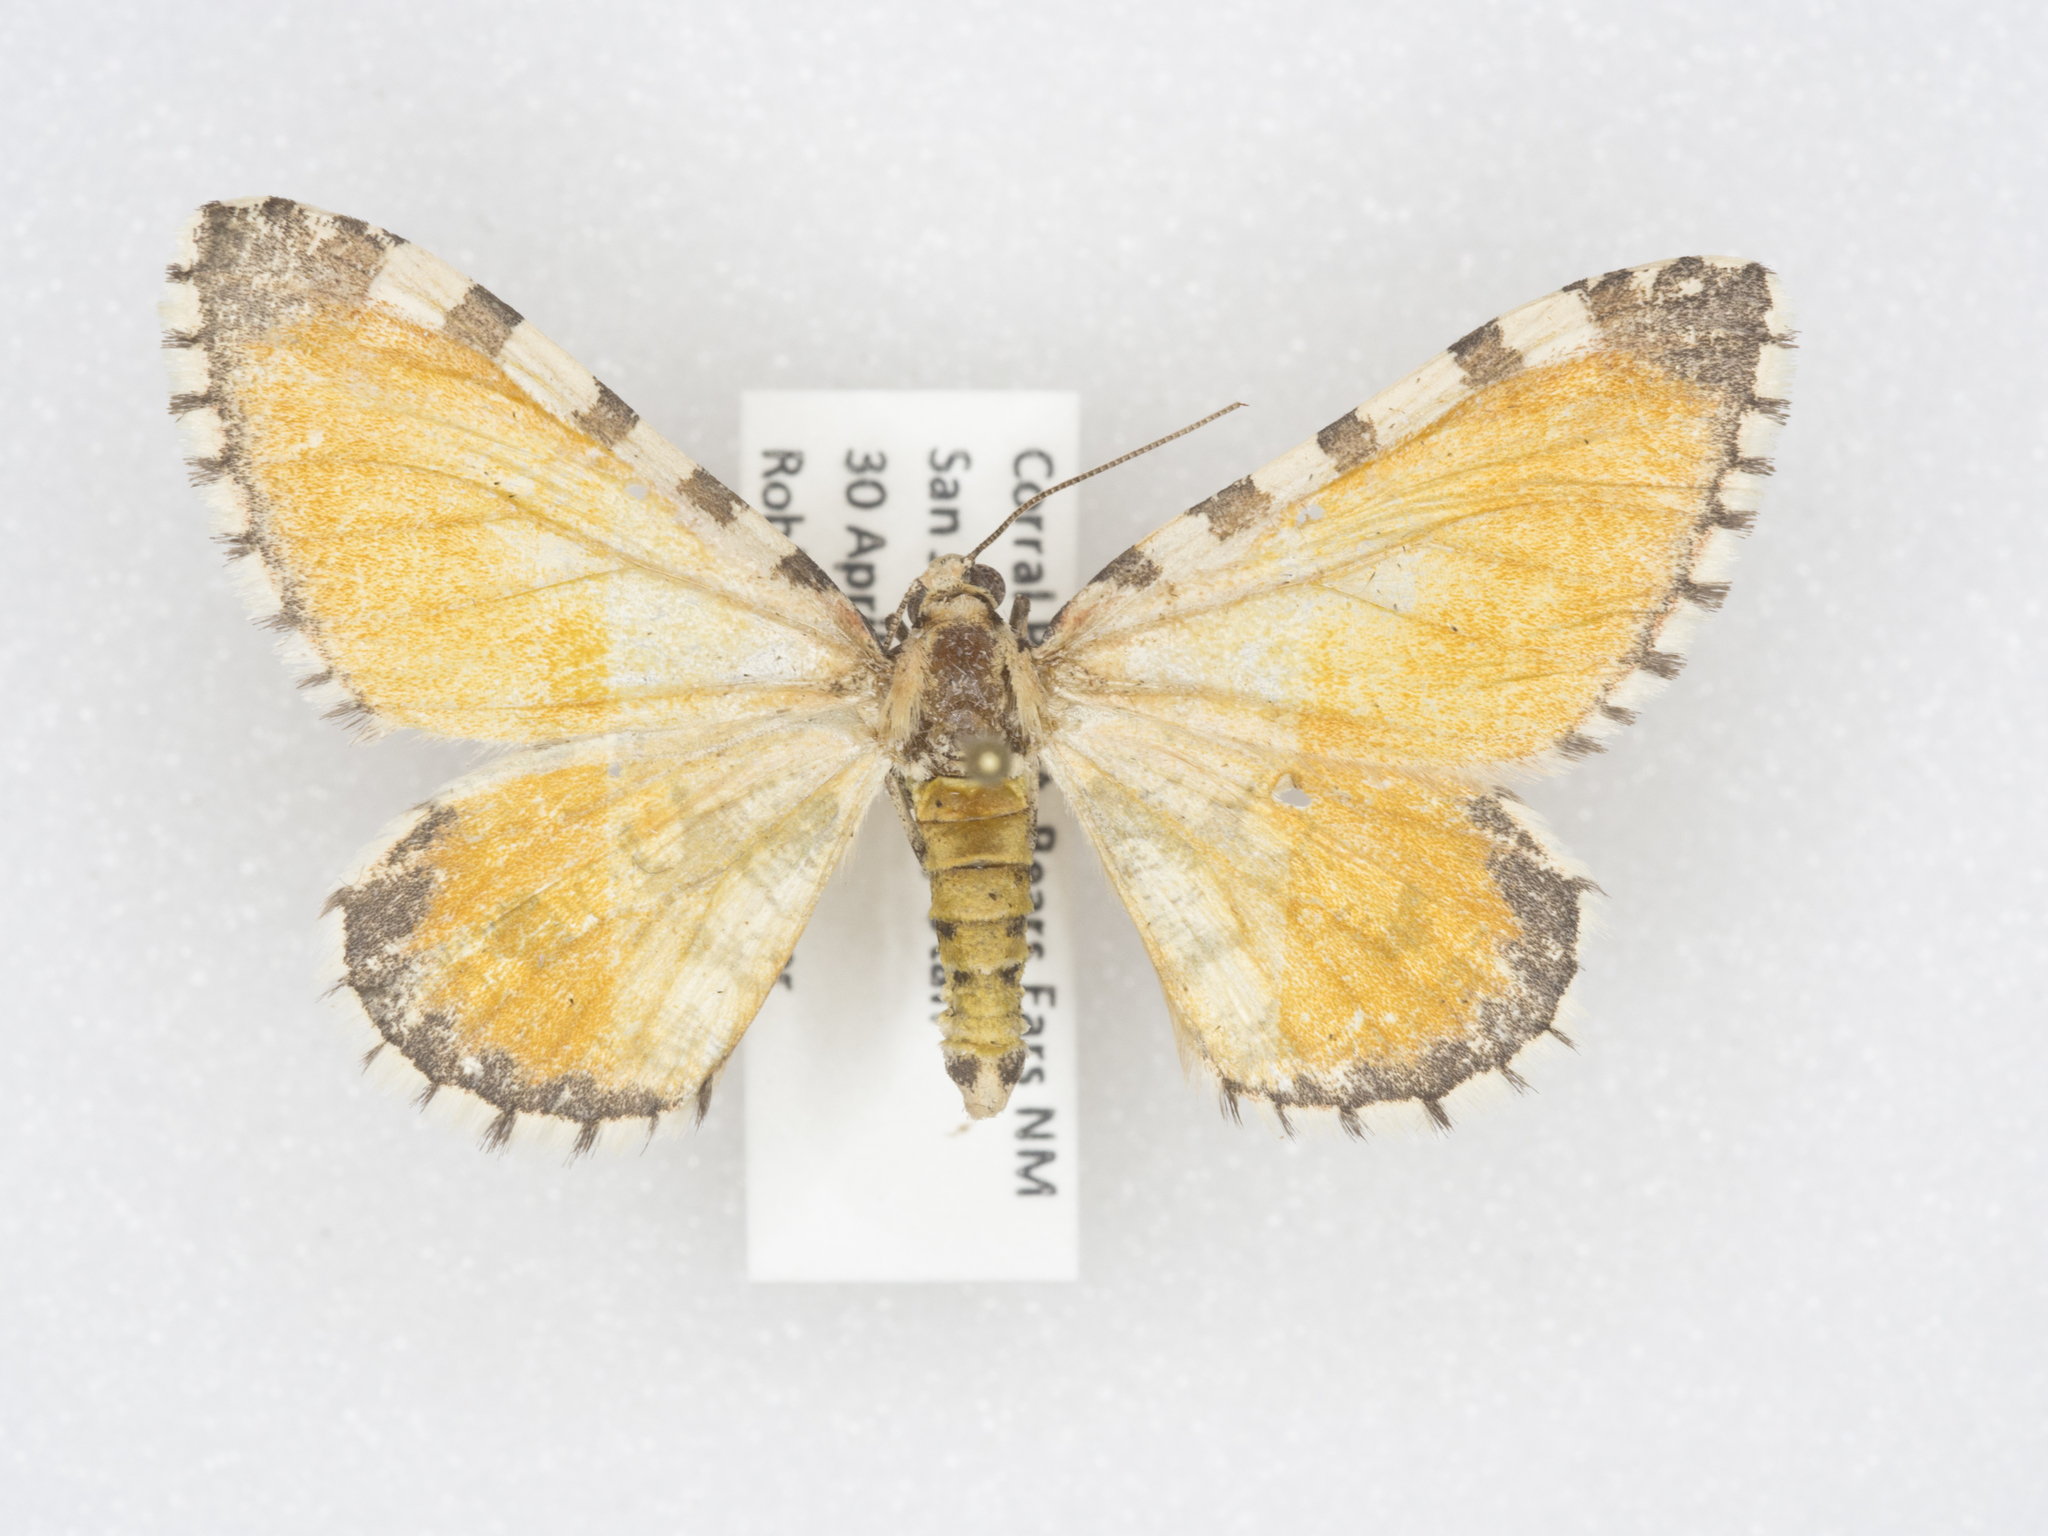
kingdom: Animalia
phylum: Arthropoda
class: Insecta
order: Lepidoptera
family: Geometridae
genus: Stamnodes
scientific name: Stamnodes tessellata
